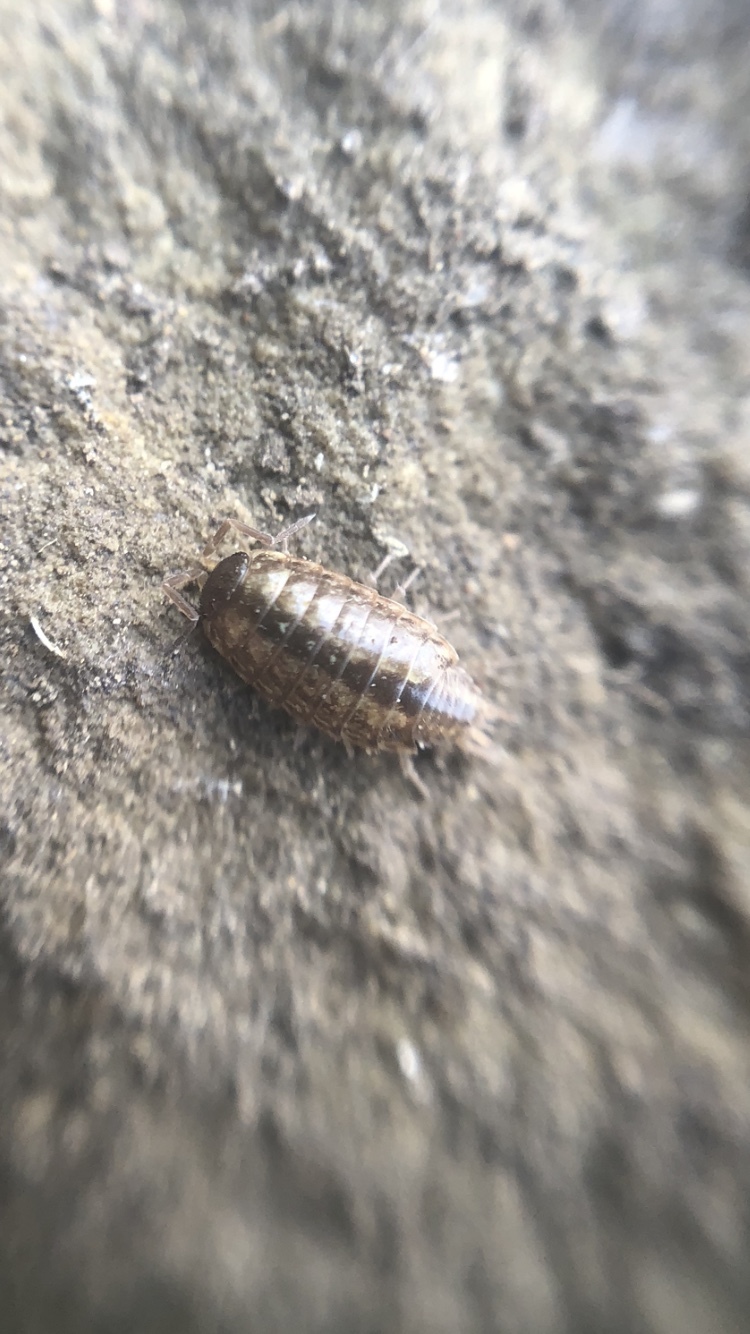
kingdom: Animalia
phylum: Arthropoda
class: Malacostraca
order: Isopoda
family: Philosciidae
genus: Philoscia
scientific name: Philoscia muscorum
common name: Common striped woodlouse
